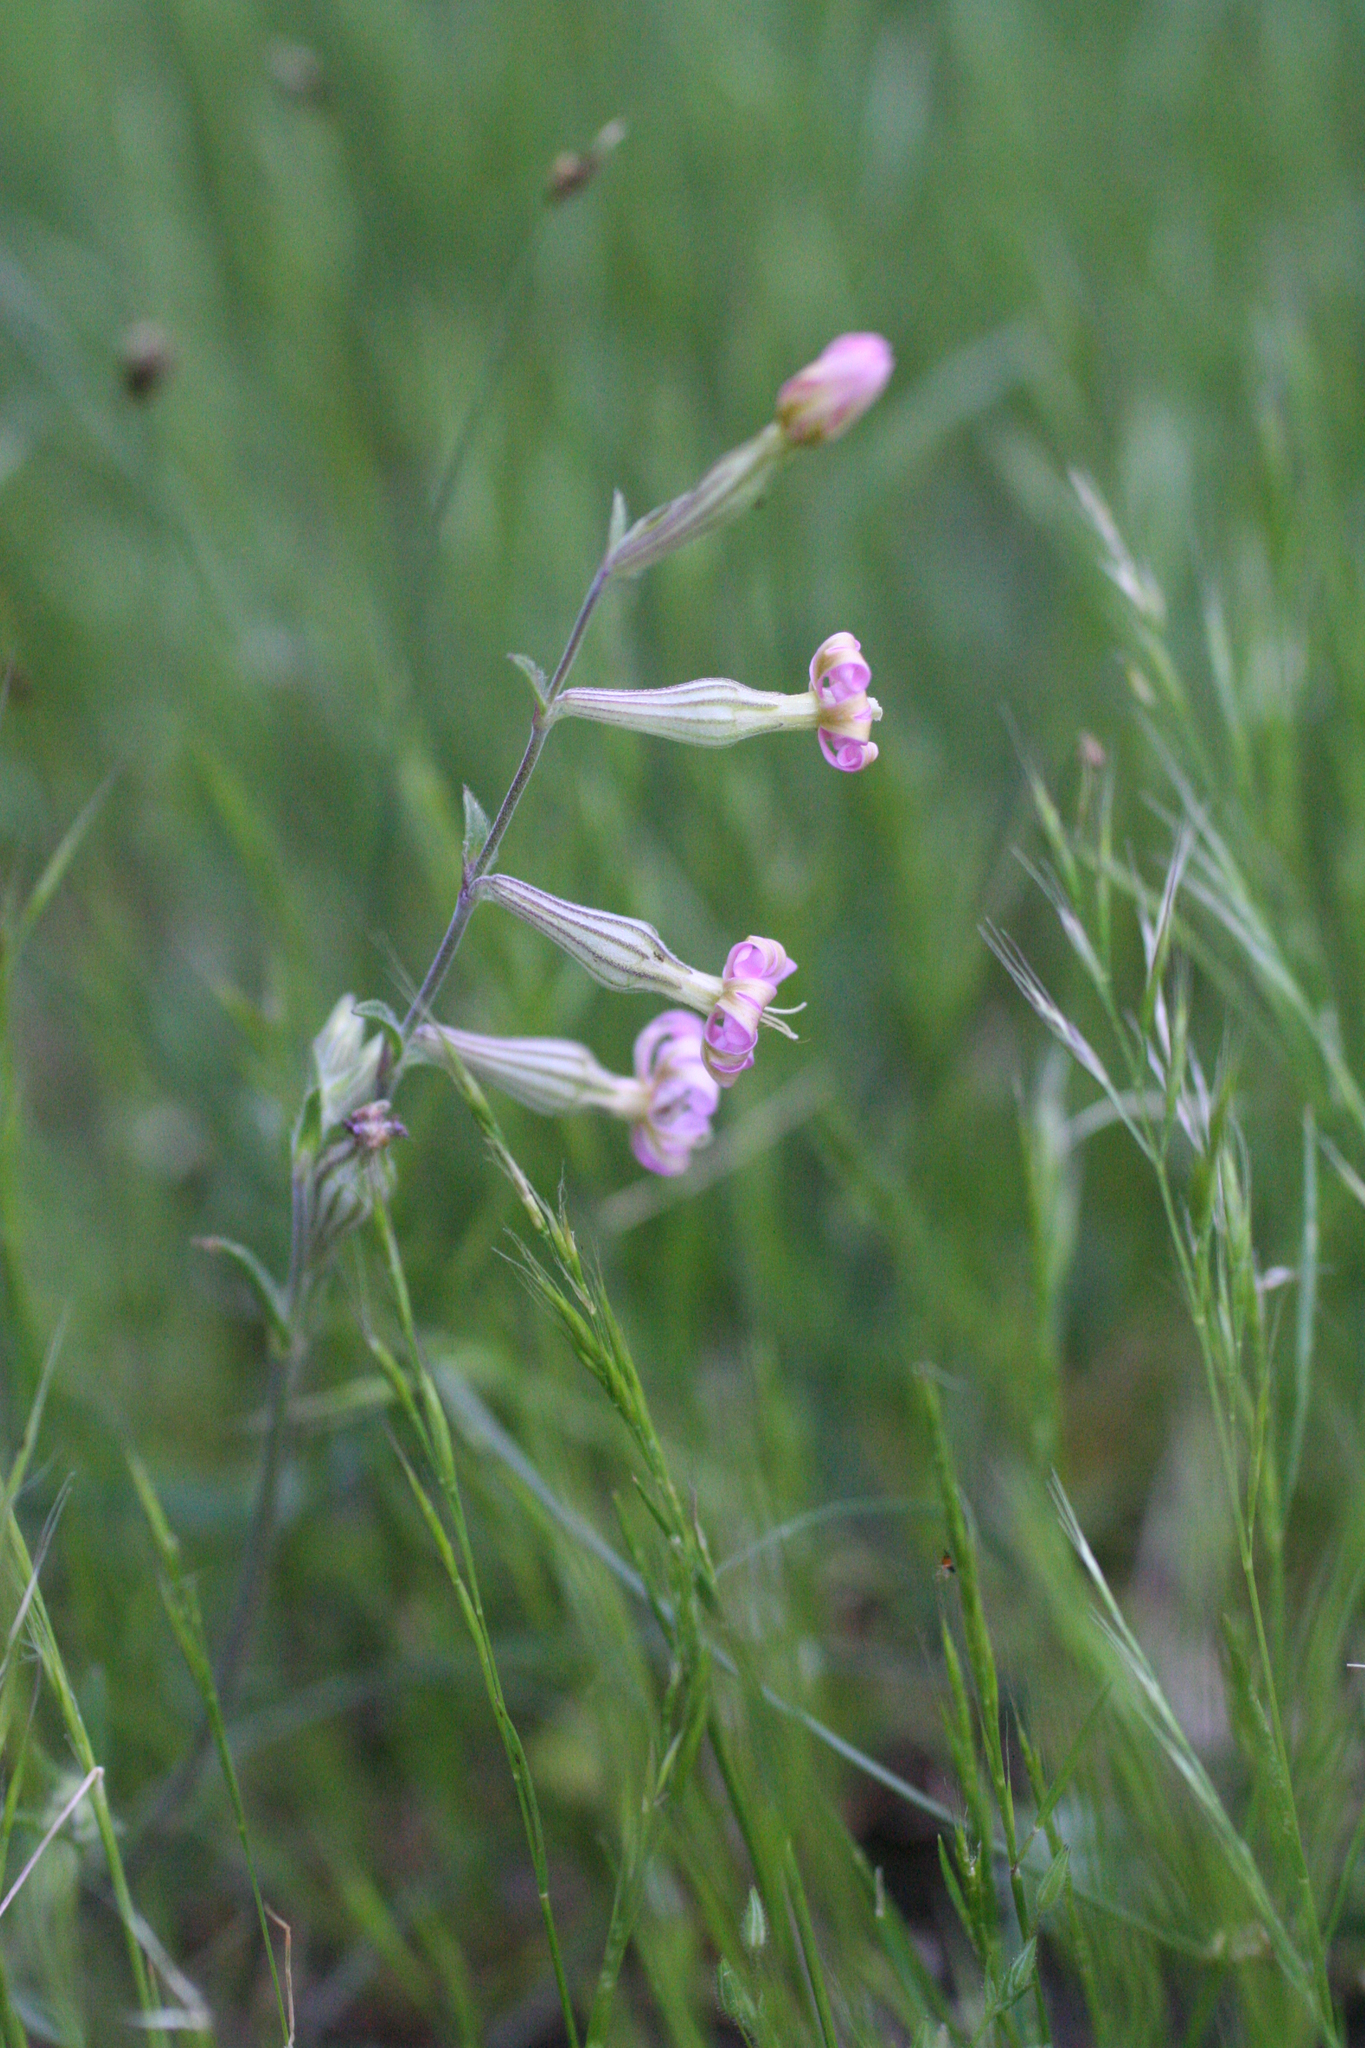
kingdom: Plantae
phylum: Tracheophyta
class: Magnoliopsida
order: Caryophyllales
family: Caryophyllaceae
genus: Silene
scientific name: Silene colorata
